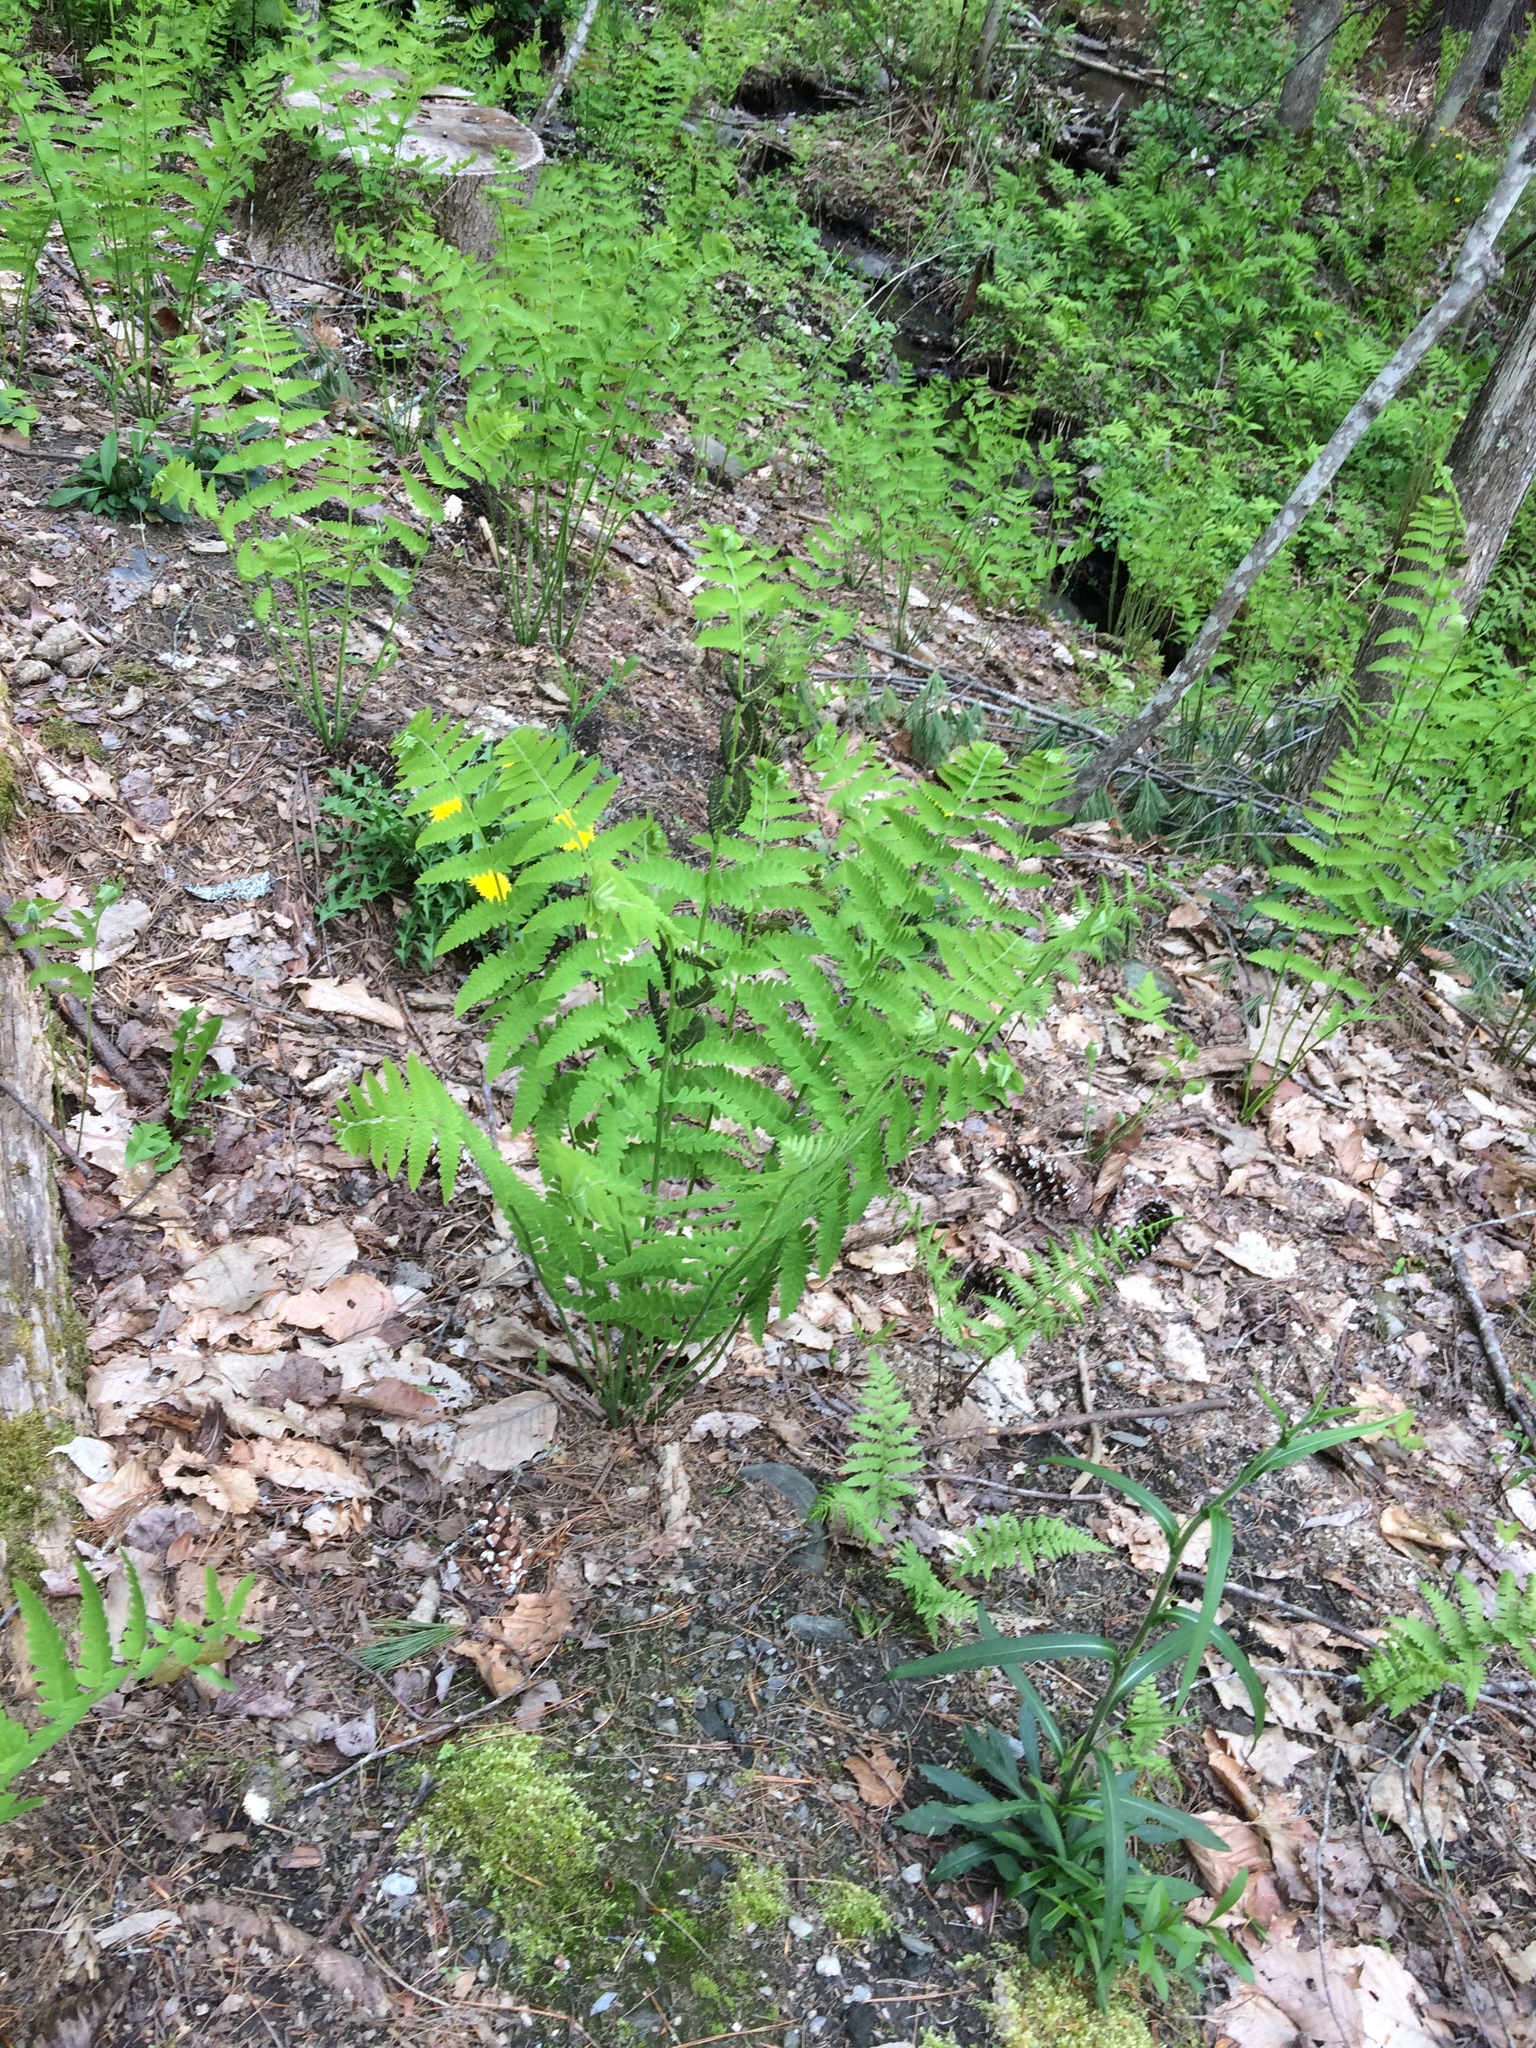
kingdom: Plantae
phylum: Tracheophyta
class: Polypodiopsida
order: Osmundales
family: Osmundaceae
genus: Claytosmunda
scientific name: Claytosmunda claytoniana
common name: Clayton's fern
